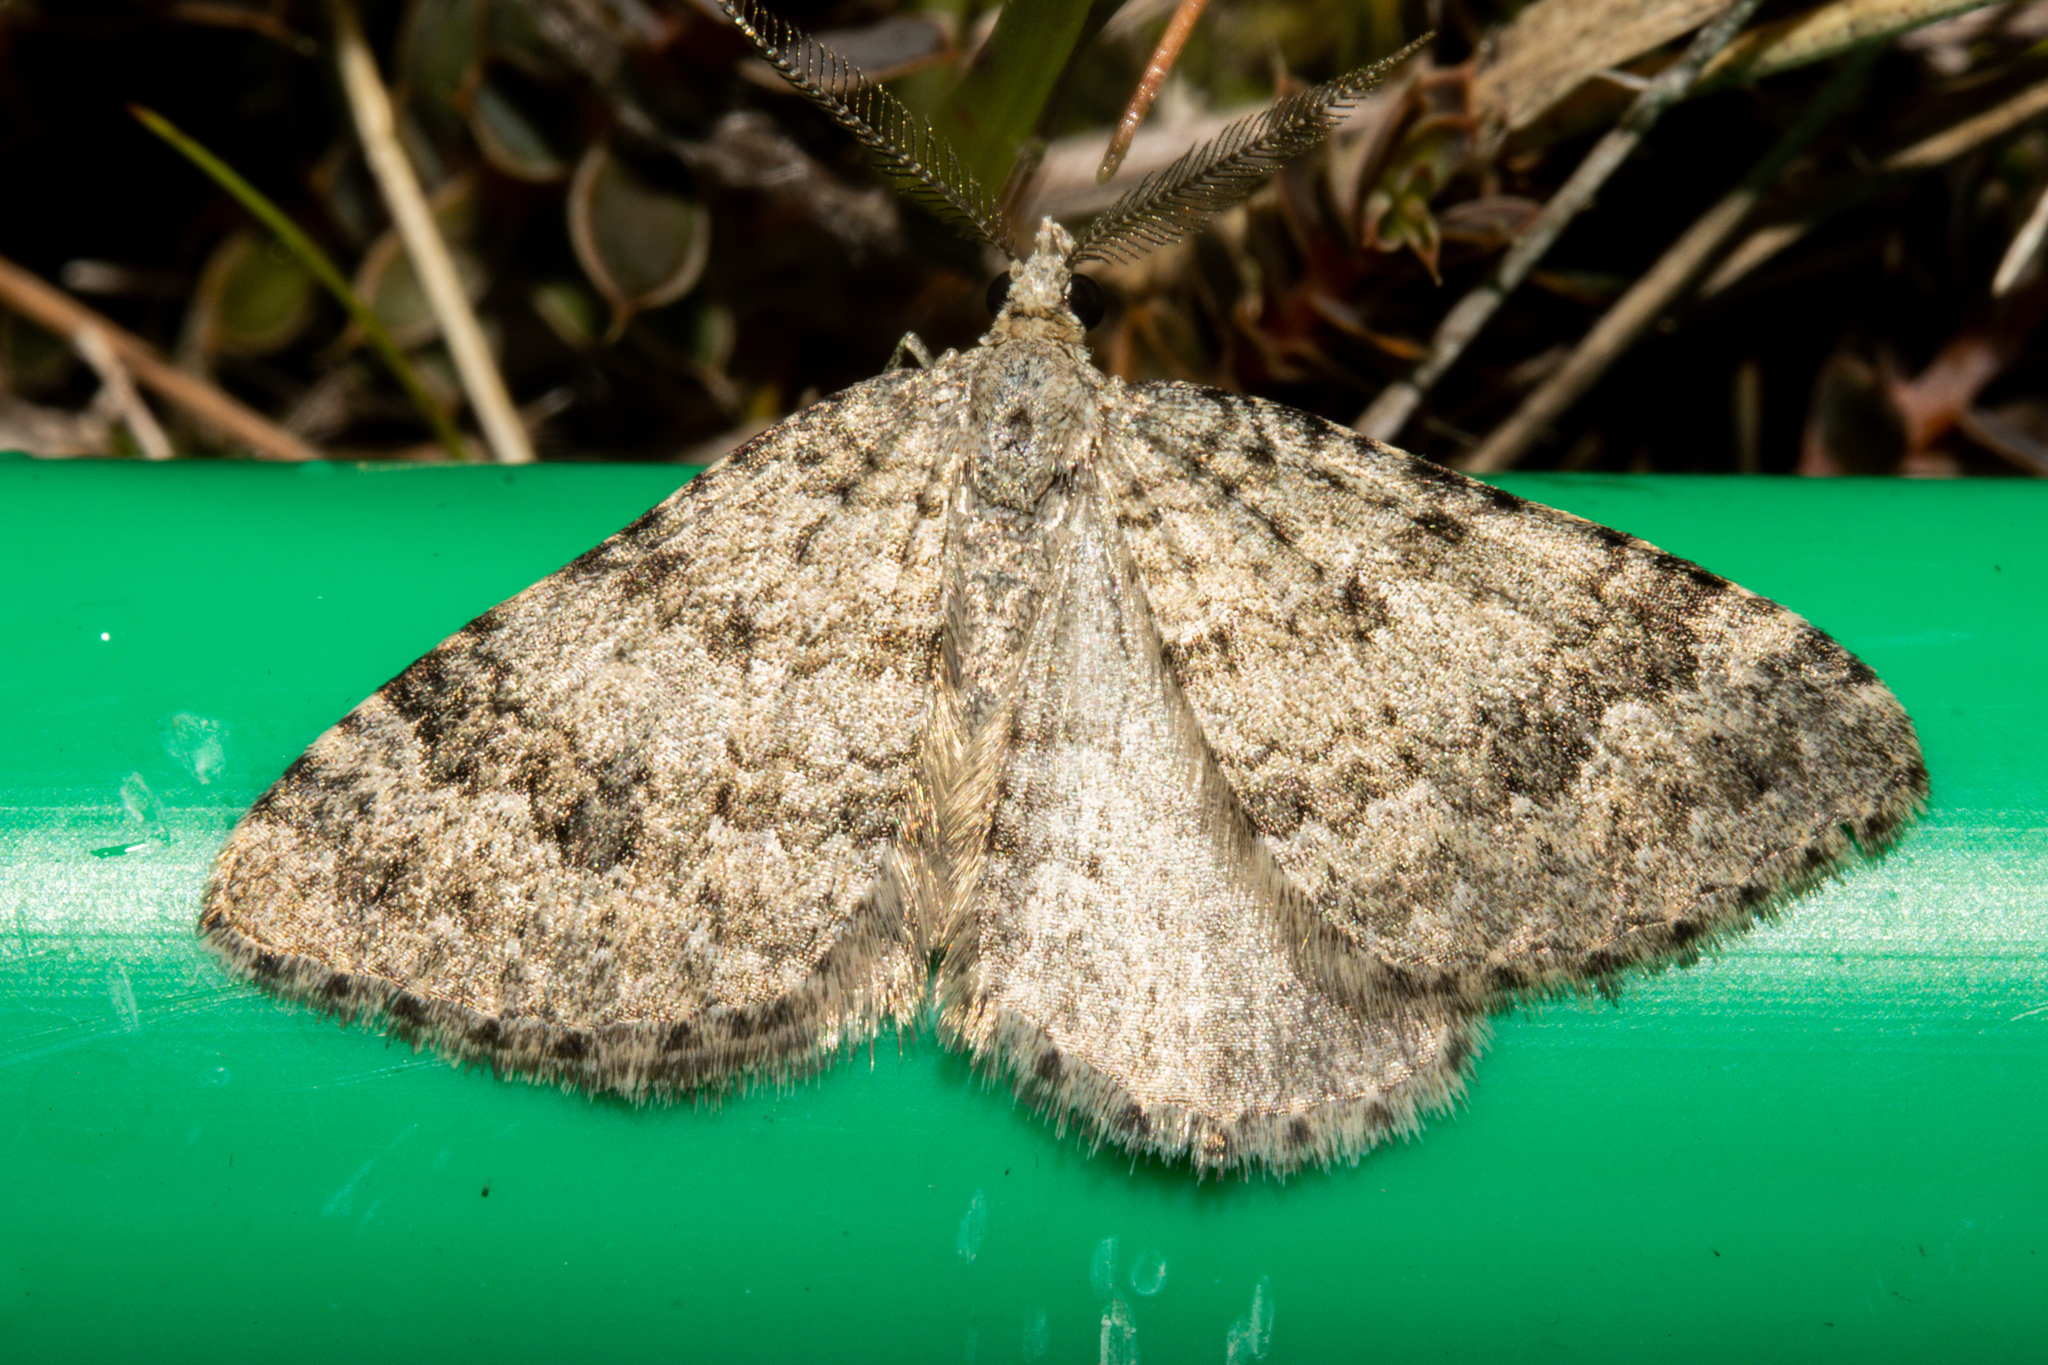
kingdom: Animalia
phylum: Arthropoda
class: Insecta
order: Lepidoptera
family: Geometridae
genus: Helastia
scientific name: Helastia corcularia
